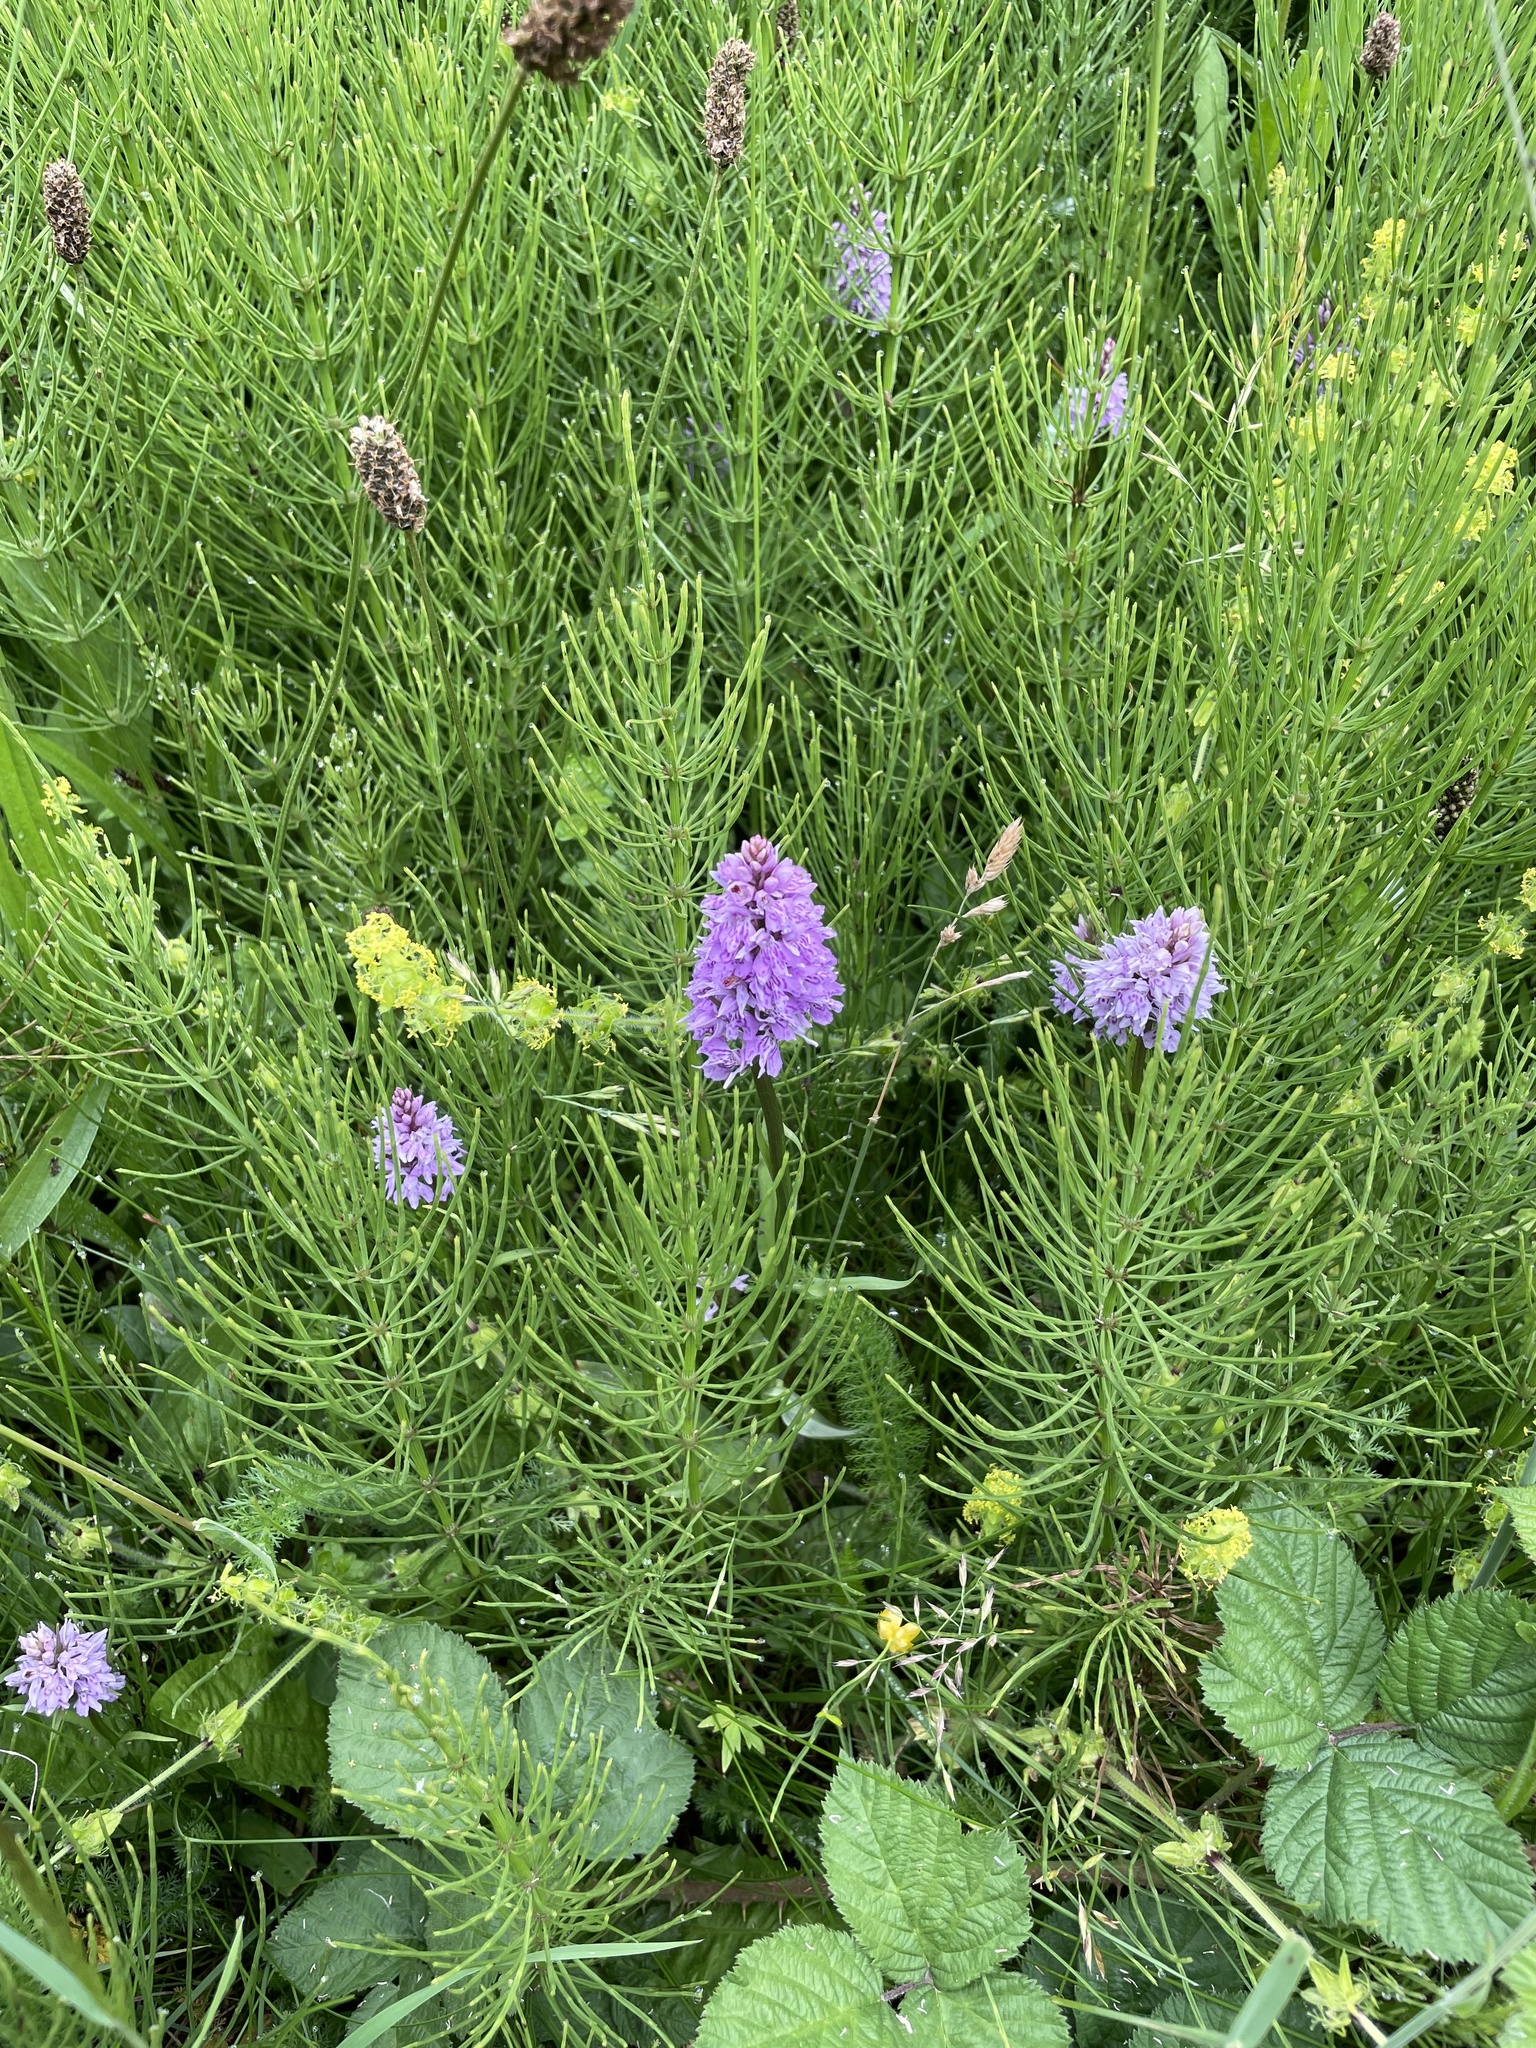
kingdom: Plantae
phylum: Tracheophyta
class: Liliopsida
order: Asparagales
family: Orchidaceae
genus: Dactylorhiza
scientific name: Dactylorhiza maculata
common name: Heath spotted-orchid
